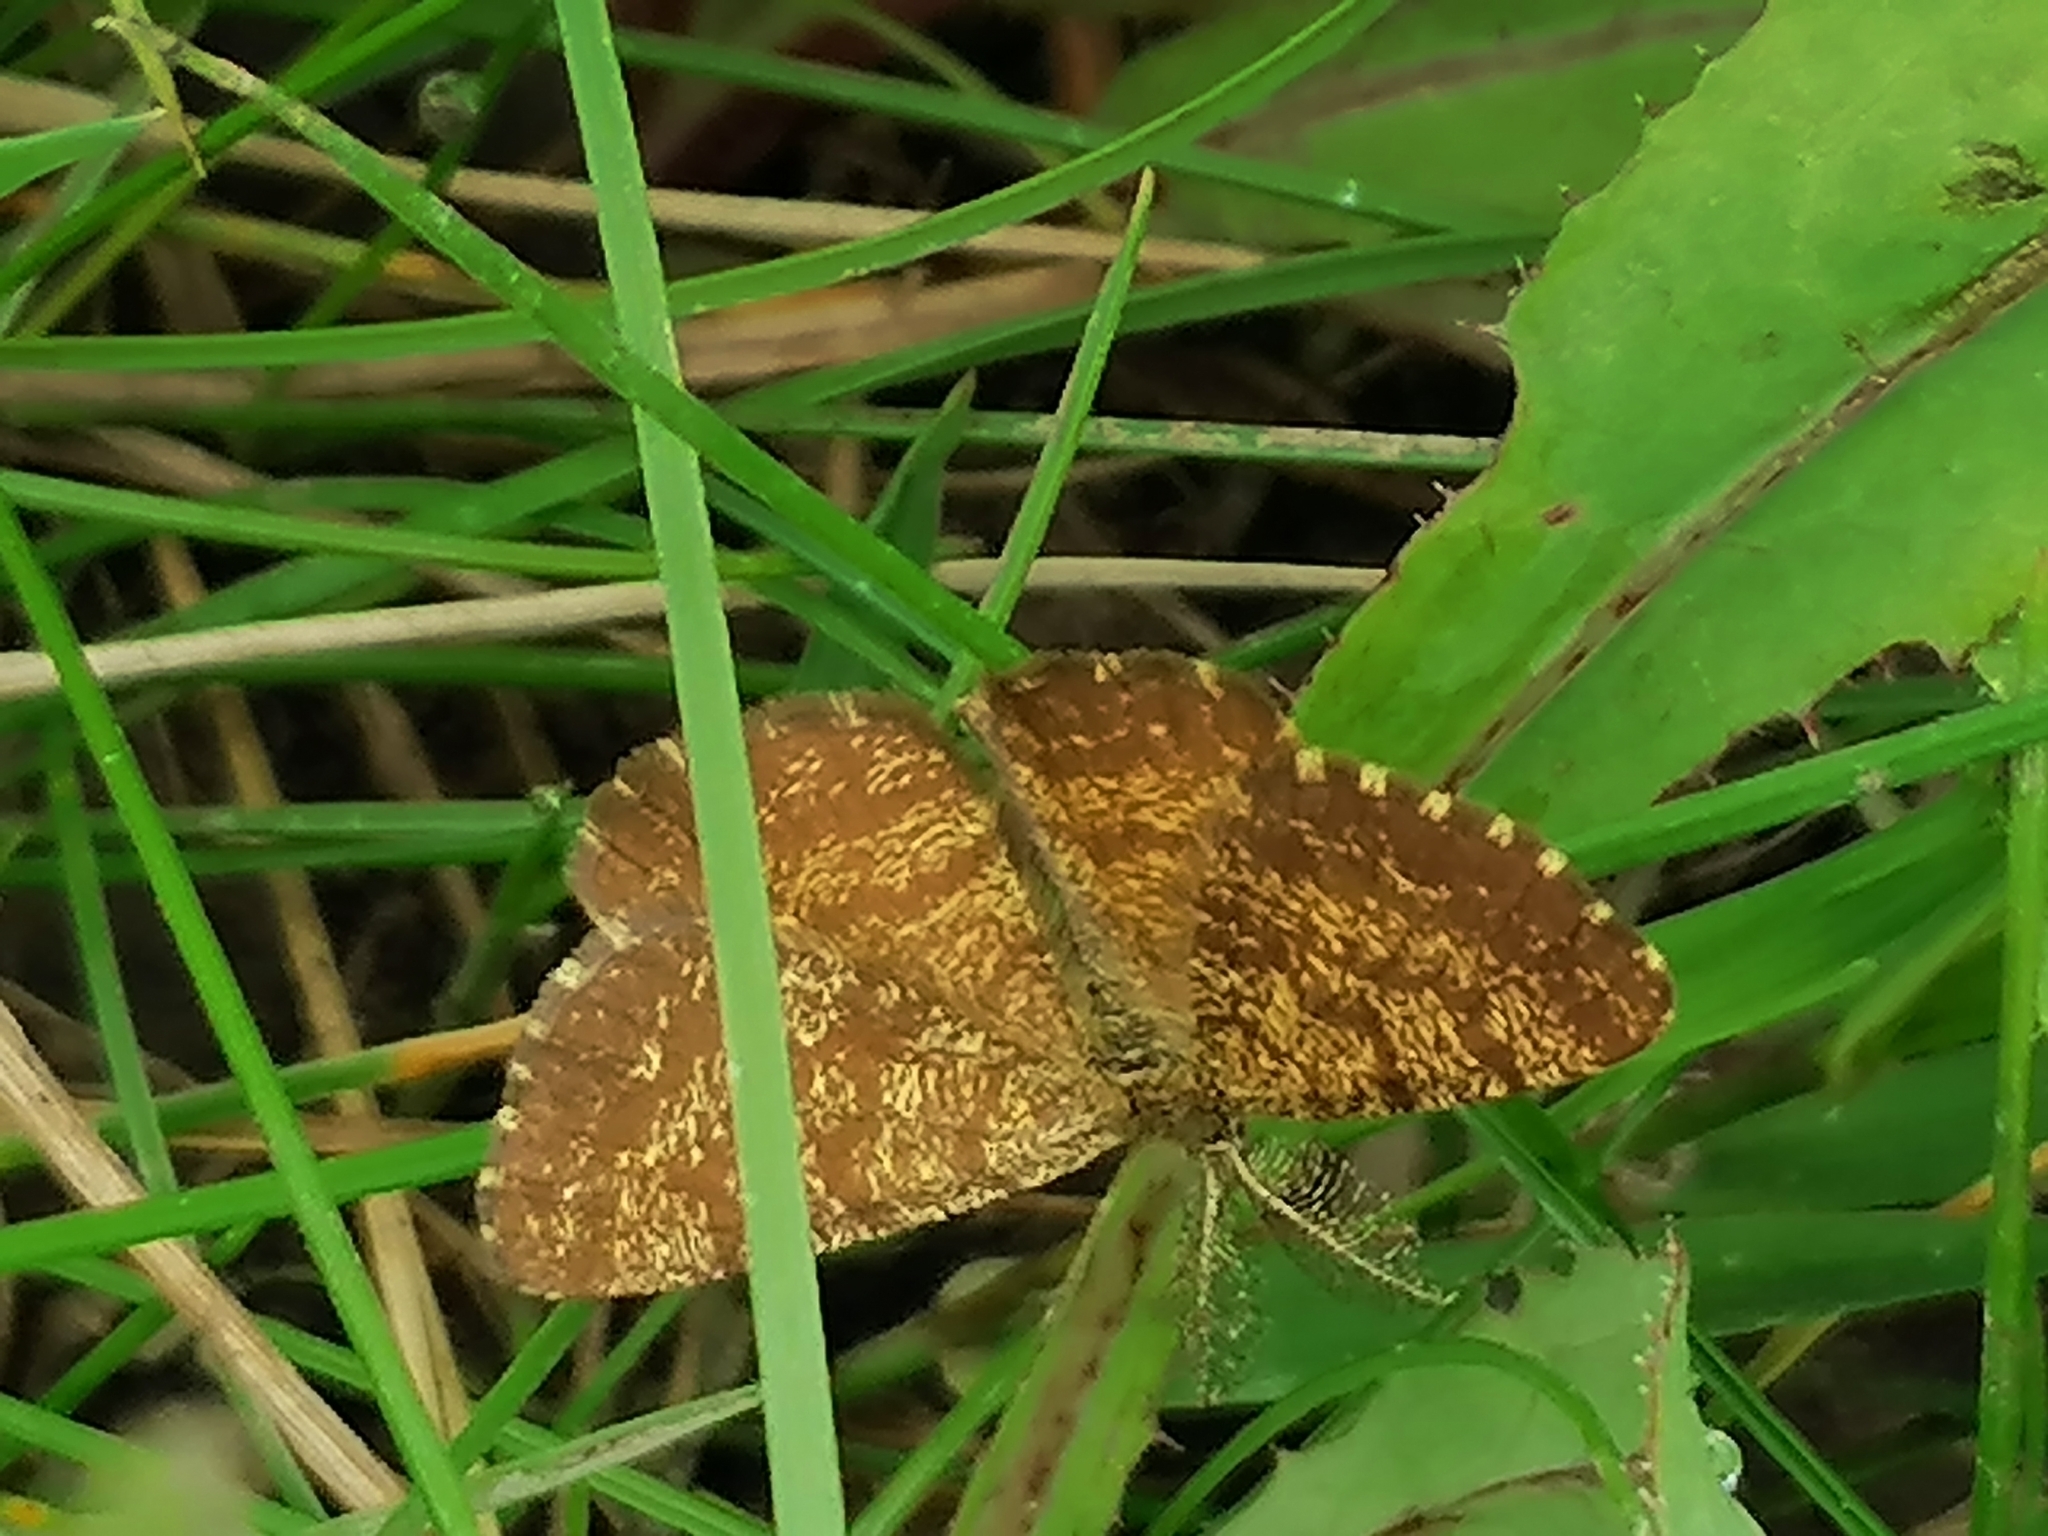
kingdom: Animalia
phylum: Arthropoda
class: Insecta
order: Lepidoptera
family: Geometridae
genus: Ematurga
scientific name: Ematurga atomaria
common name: Common heath
